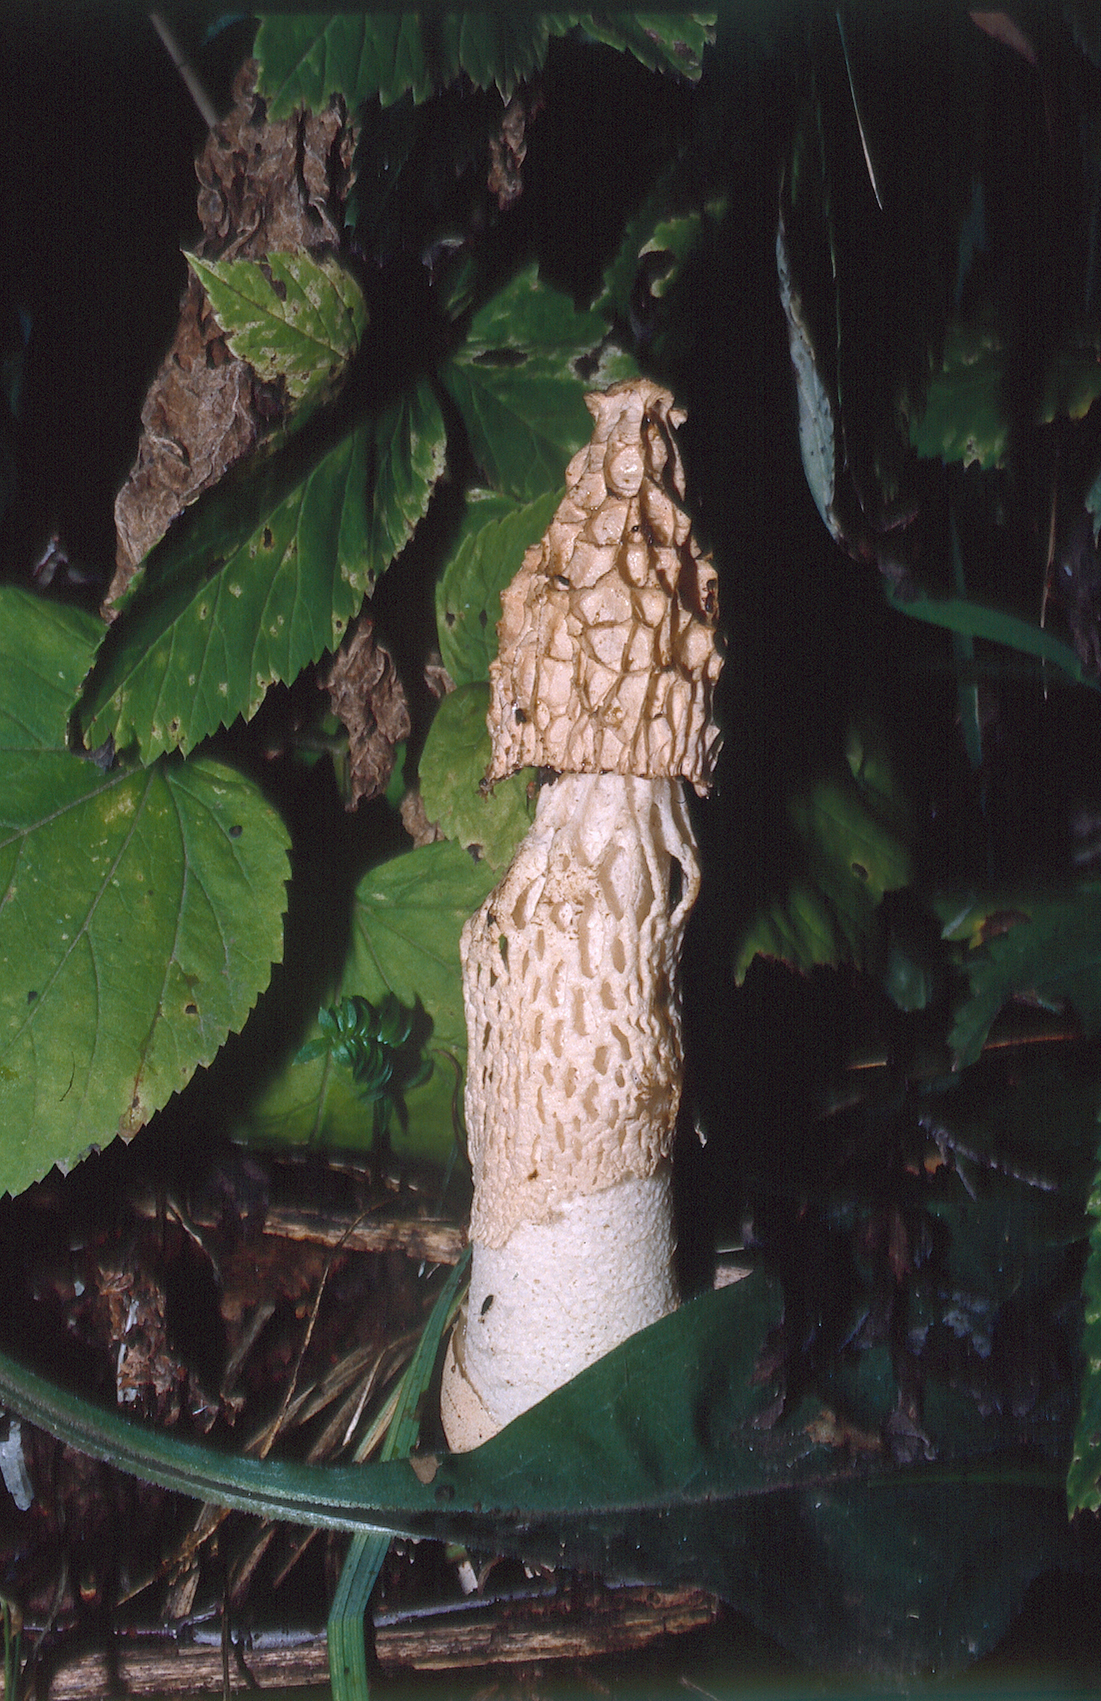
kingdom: Fungi
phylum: Basidiomycota
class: Agaricomycetes
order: Phallales
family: Phallaceae
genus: Phallus
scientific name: Phallus ultraduplicatus
